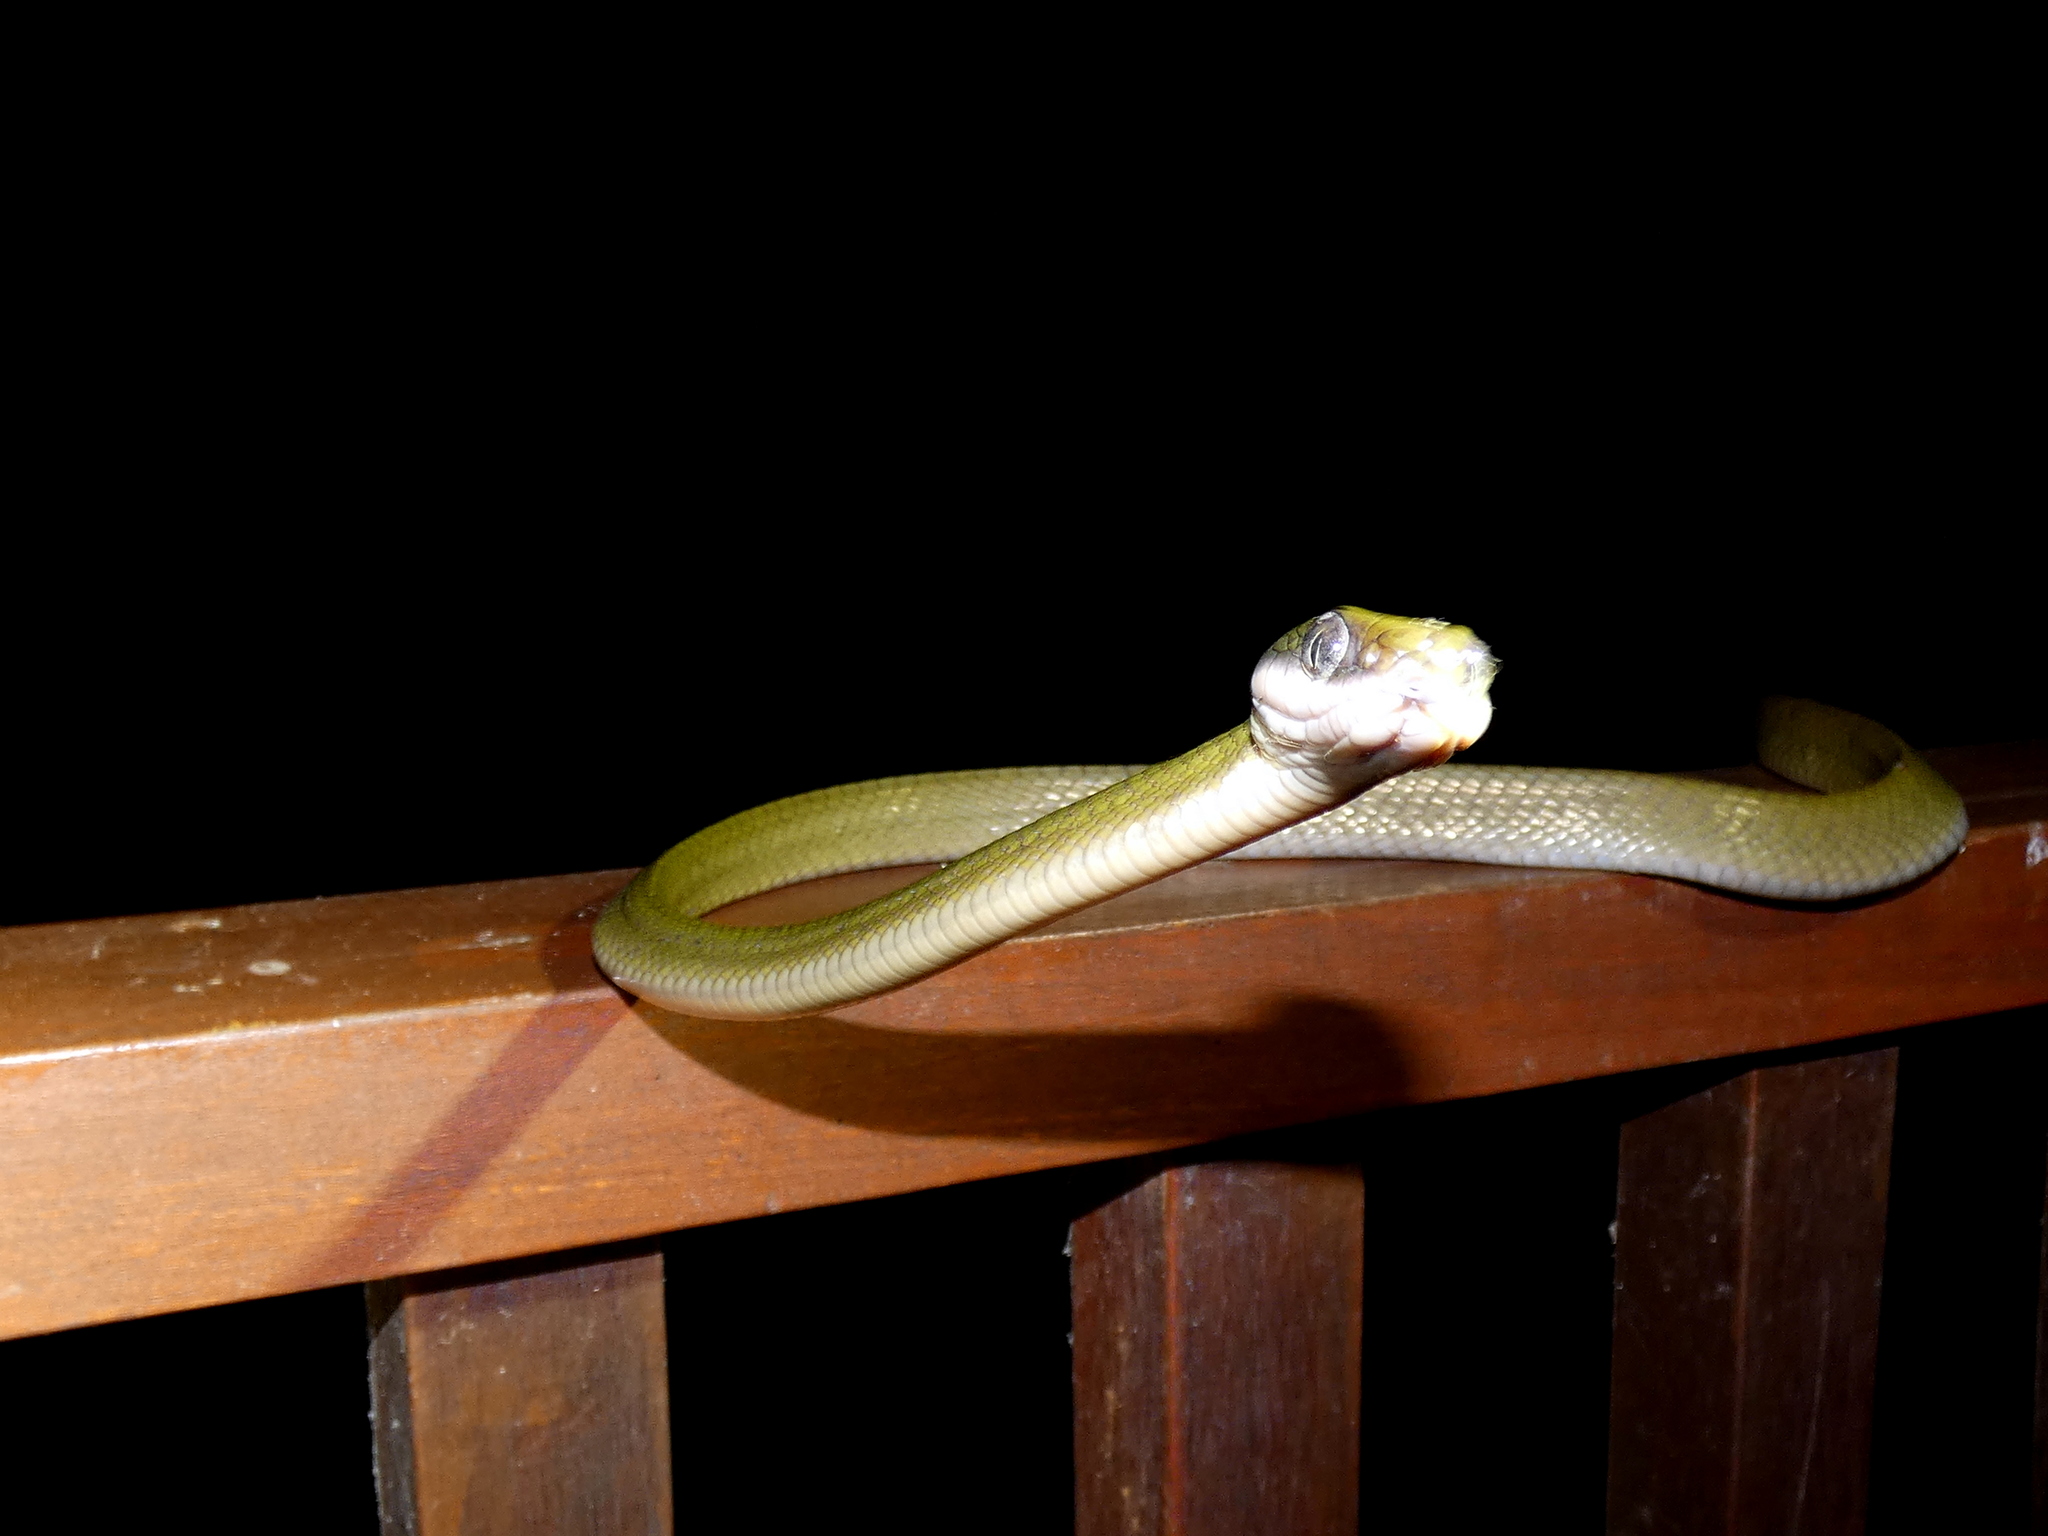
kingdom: Animalia
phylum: Chordata
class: Squamata
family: Colubridae
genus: Boiga
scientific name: Boiga nigriceps
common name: Black-headed cat snake
